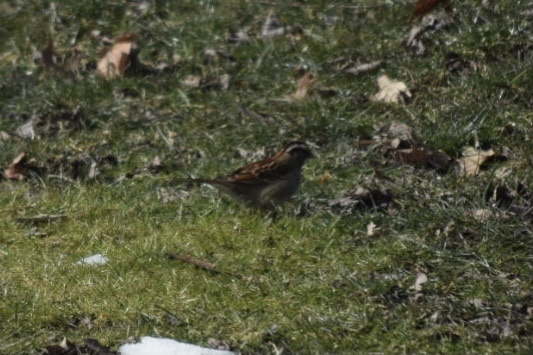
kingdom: Animalia
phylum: Chordata
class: Aves
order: Passeriformes
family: Passerellidae
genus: Zonotrichia
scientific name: Zonotrichia albicollis
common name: White-throated sparrow
